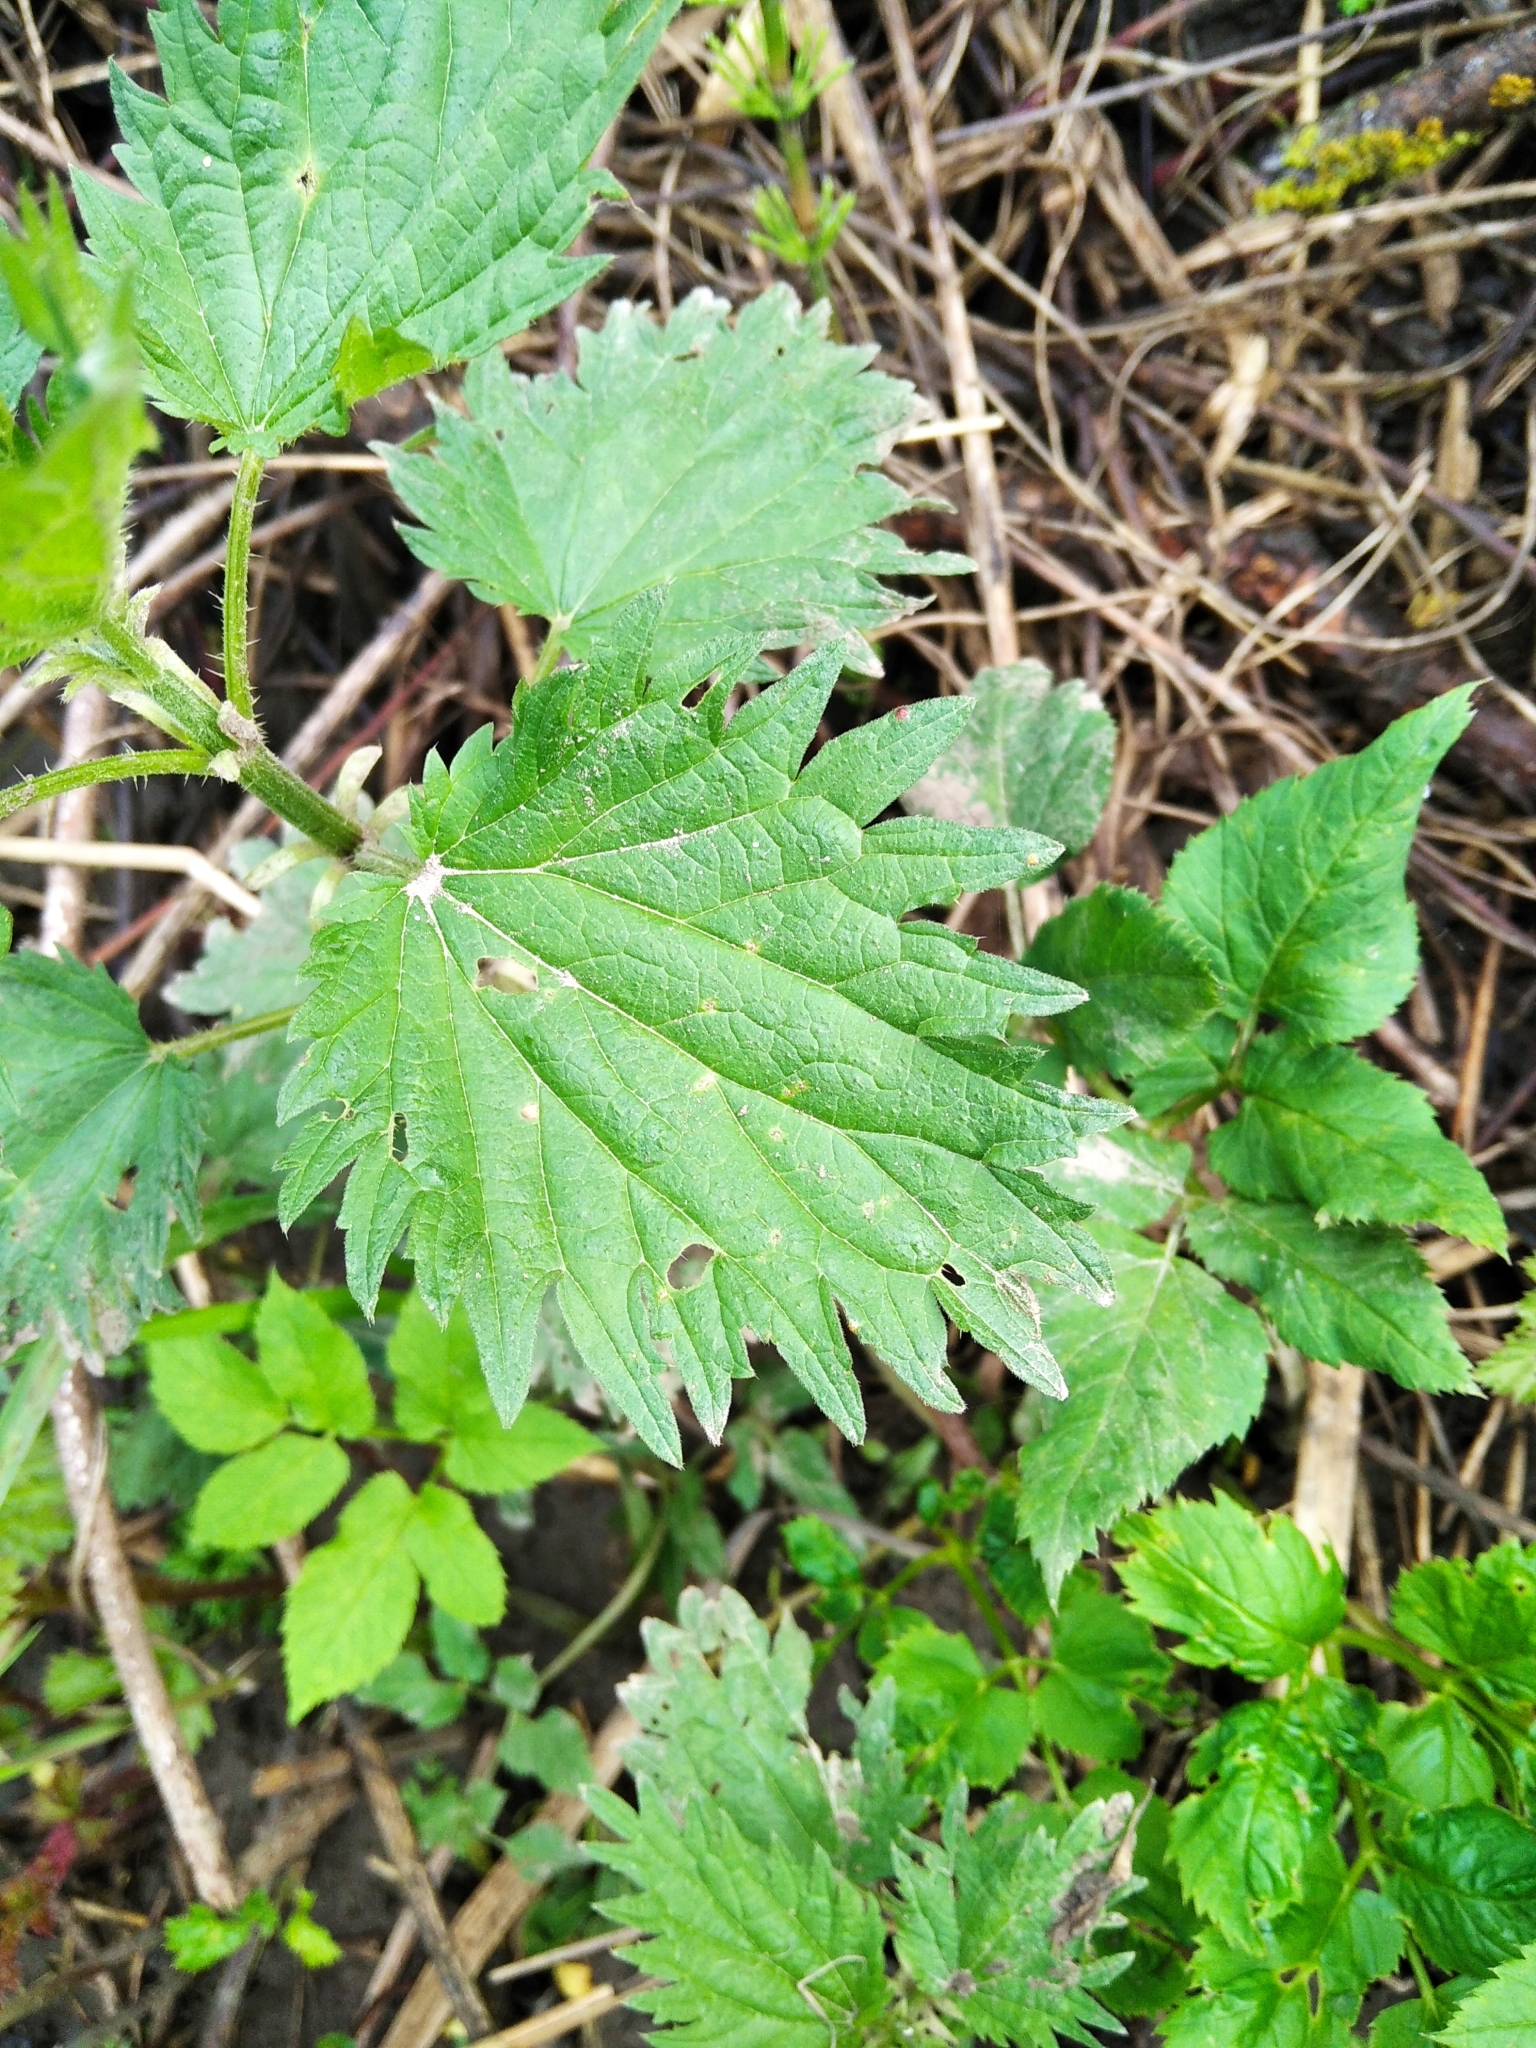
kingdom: Plantae
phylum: Tracheophyta
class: Magnoliopsida
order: Rosales
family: Urticaceae
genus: Urtica
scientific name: Urtica dioica
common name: Common nettle
